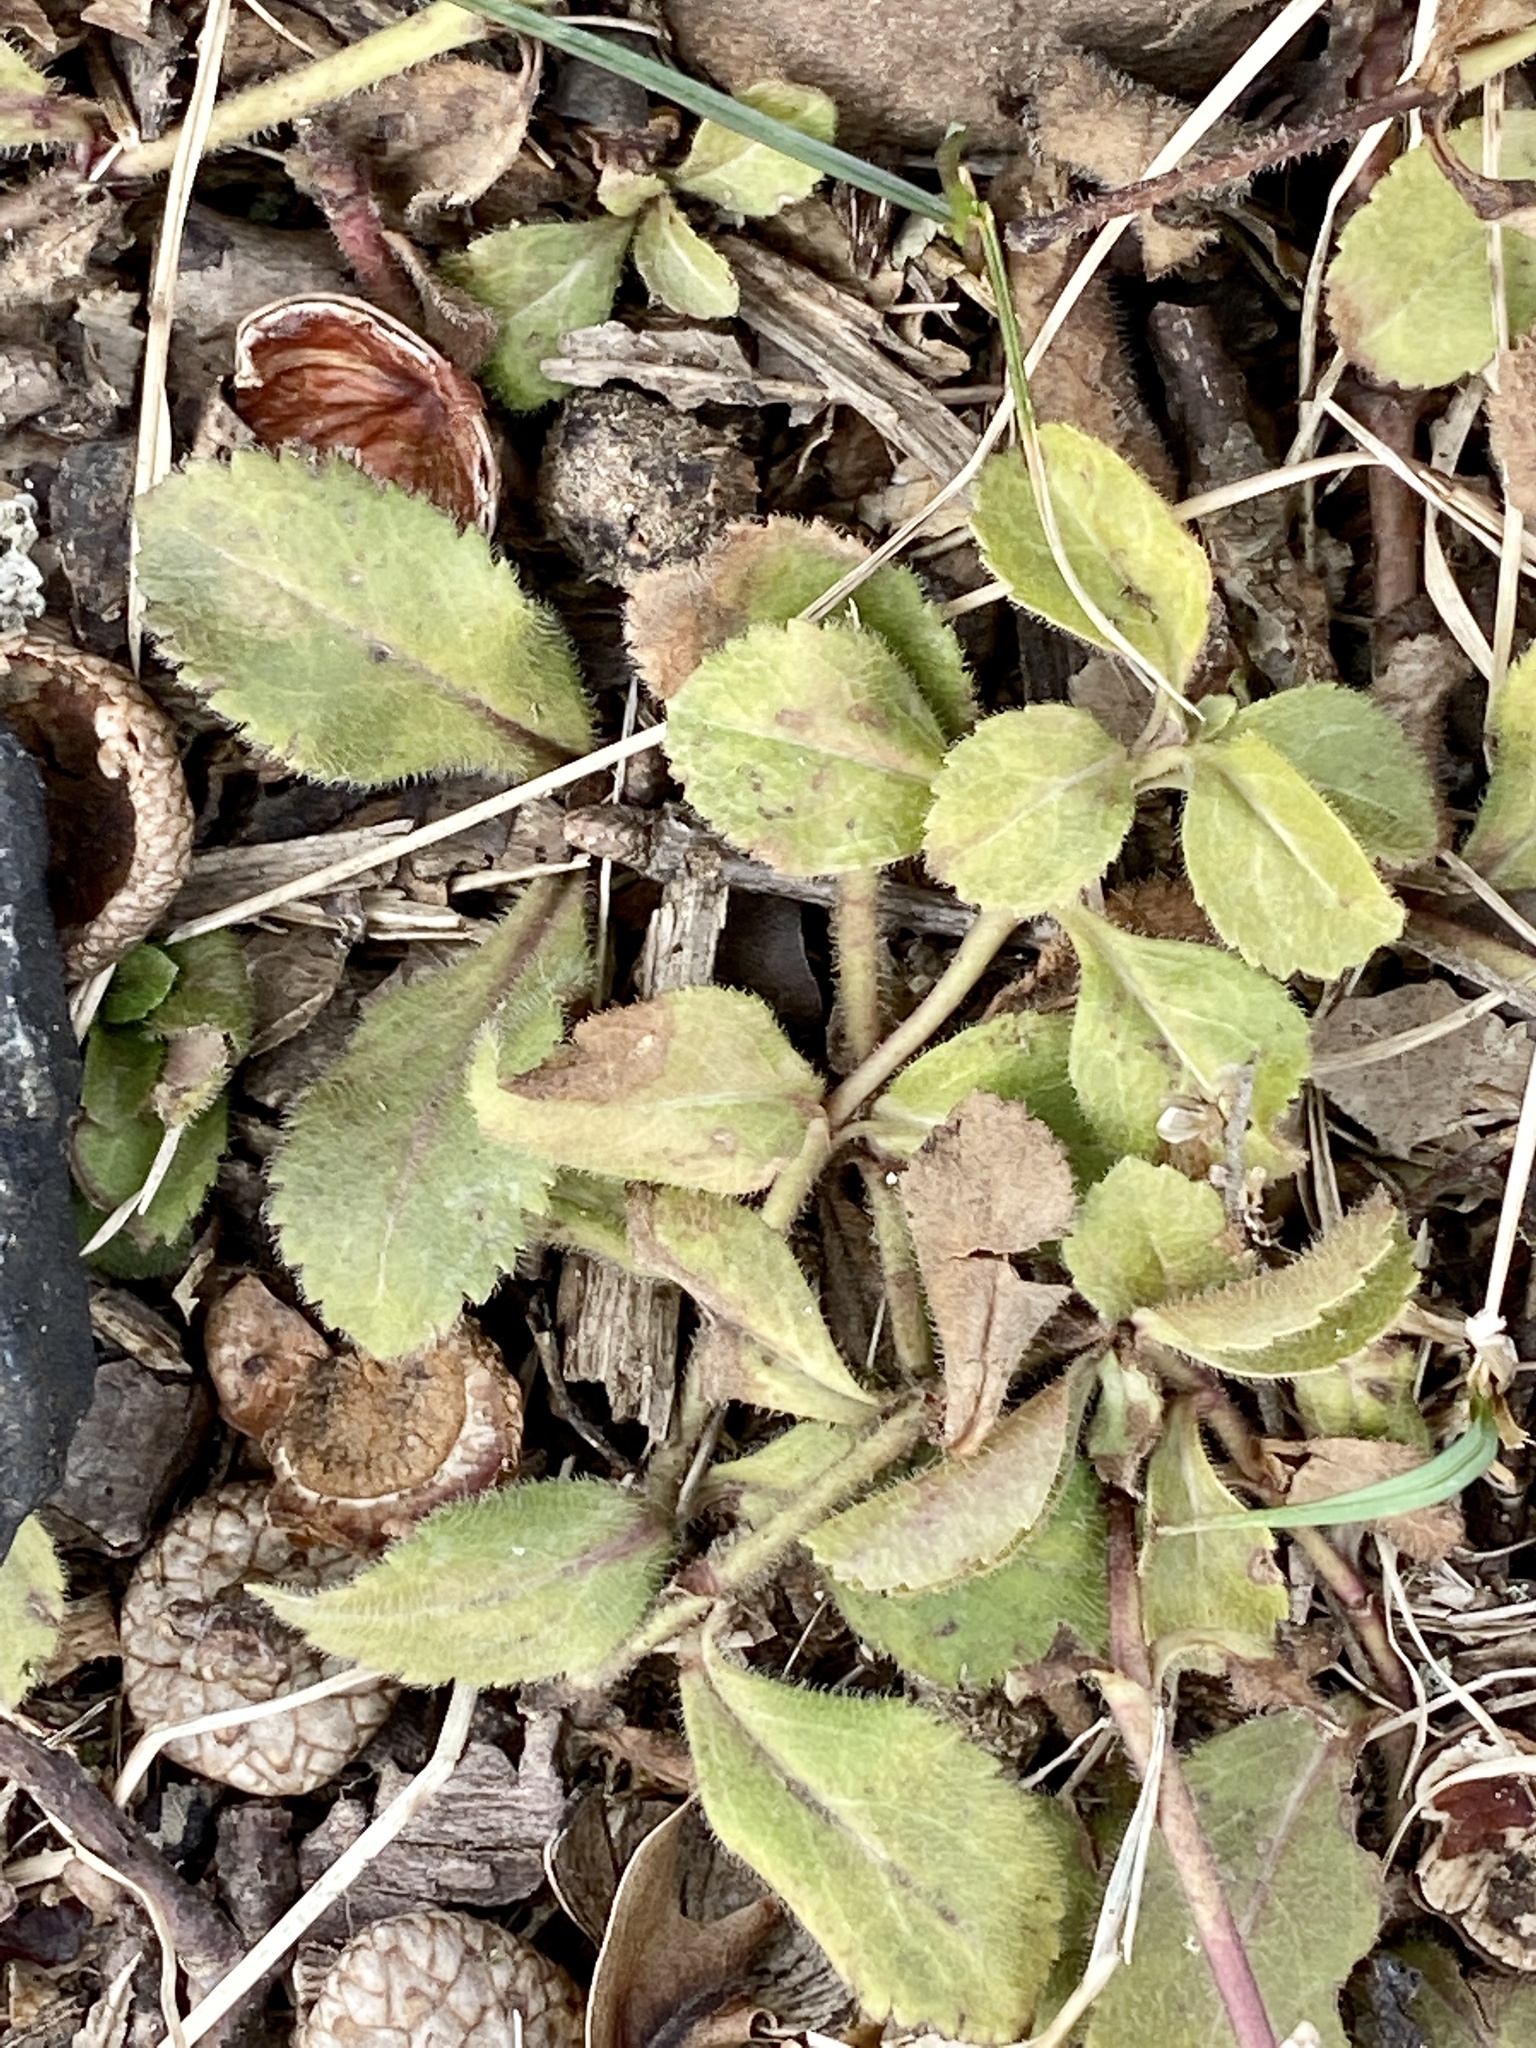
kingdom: Plantae
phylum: Tracheophyta
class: Magnoliopsida
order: Lamiales
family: Plantaginaceae
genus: Veronica
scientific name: Veronica officinalis
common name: Common speedwell
